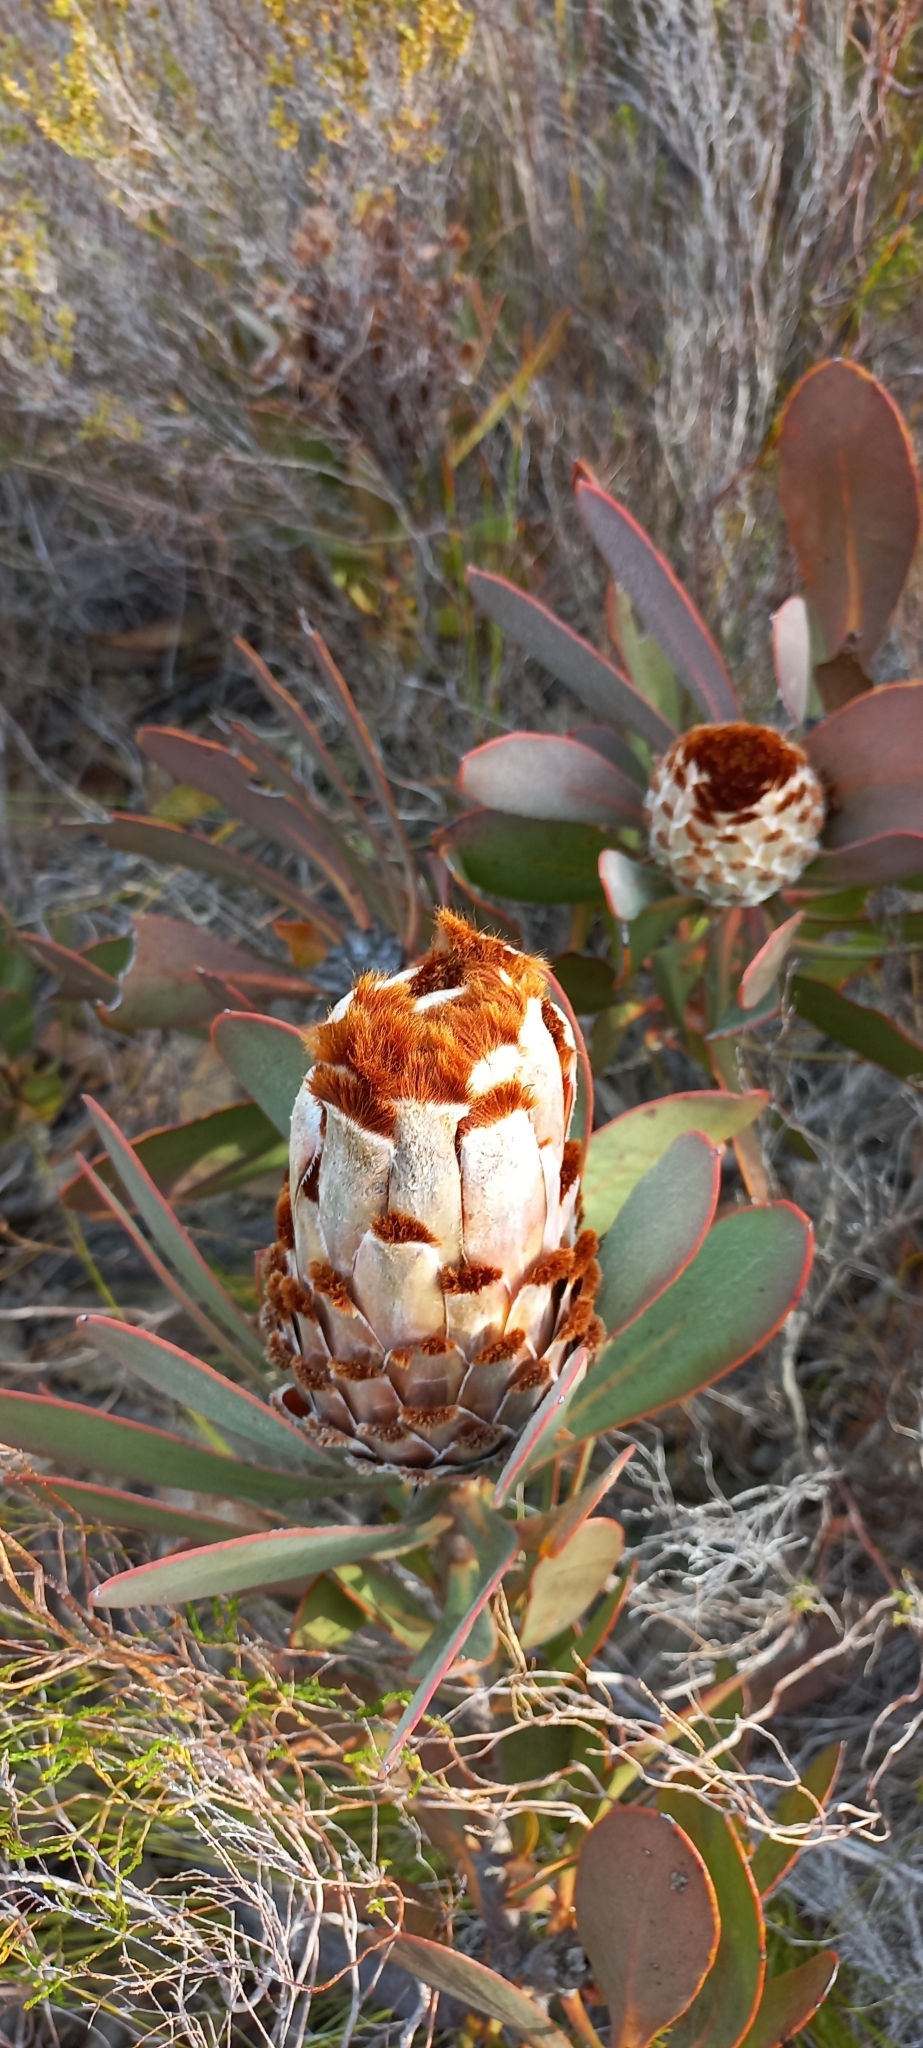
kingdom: Plantae
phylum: Tracheophyta
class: Magnoliopsida
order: Proteales
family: Proteaceae
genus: Protea
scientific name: Protea speciosa
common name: Brown-beard sugarbush
